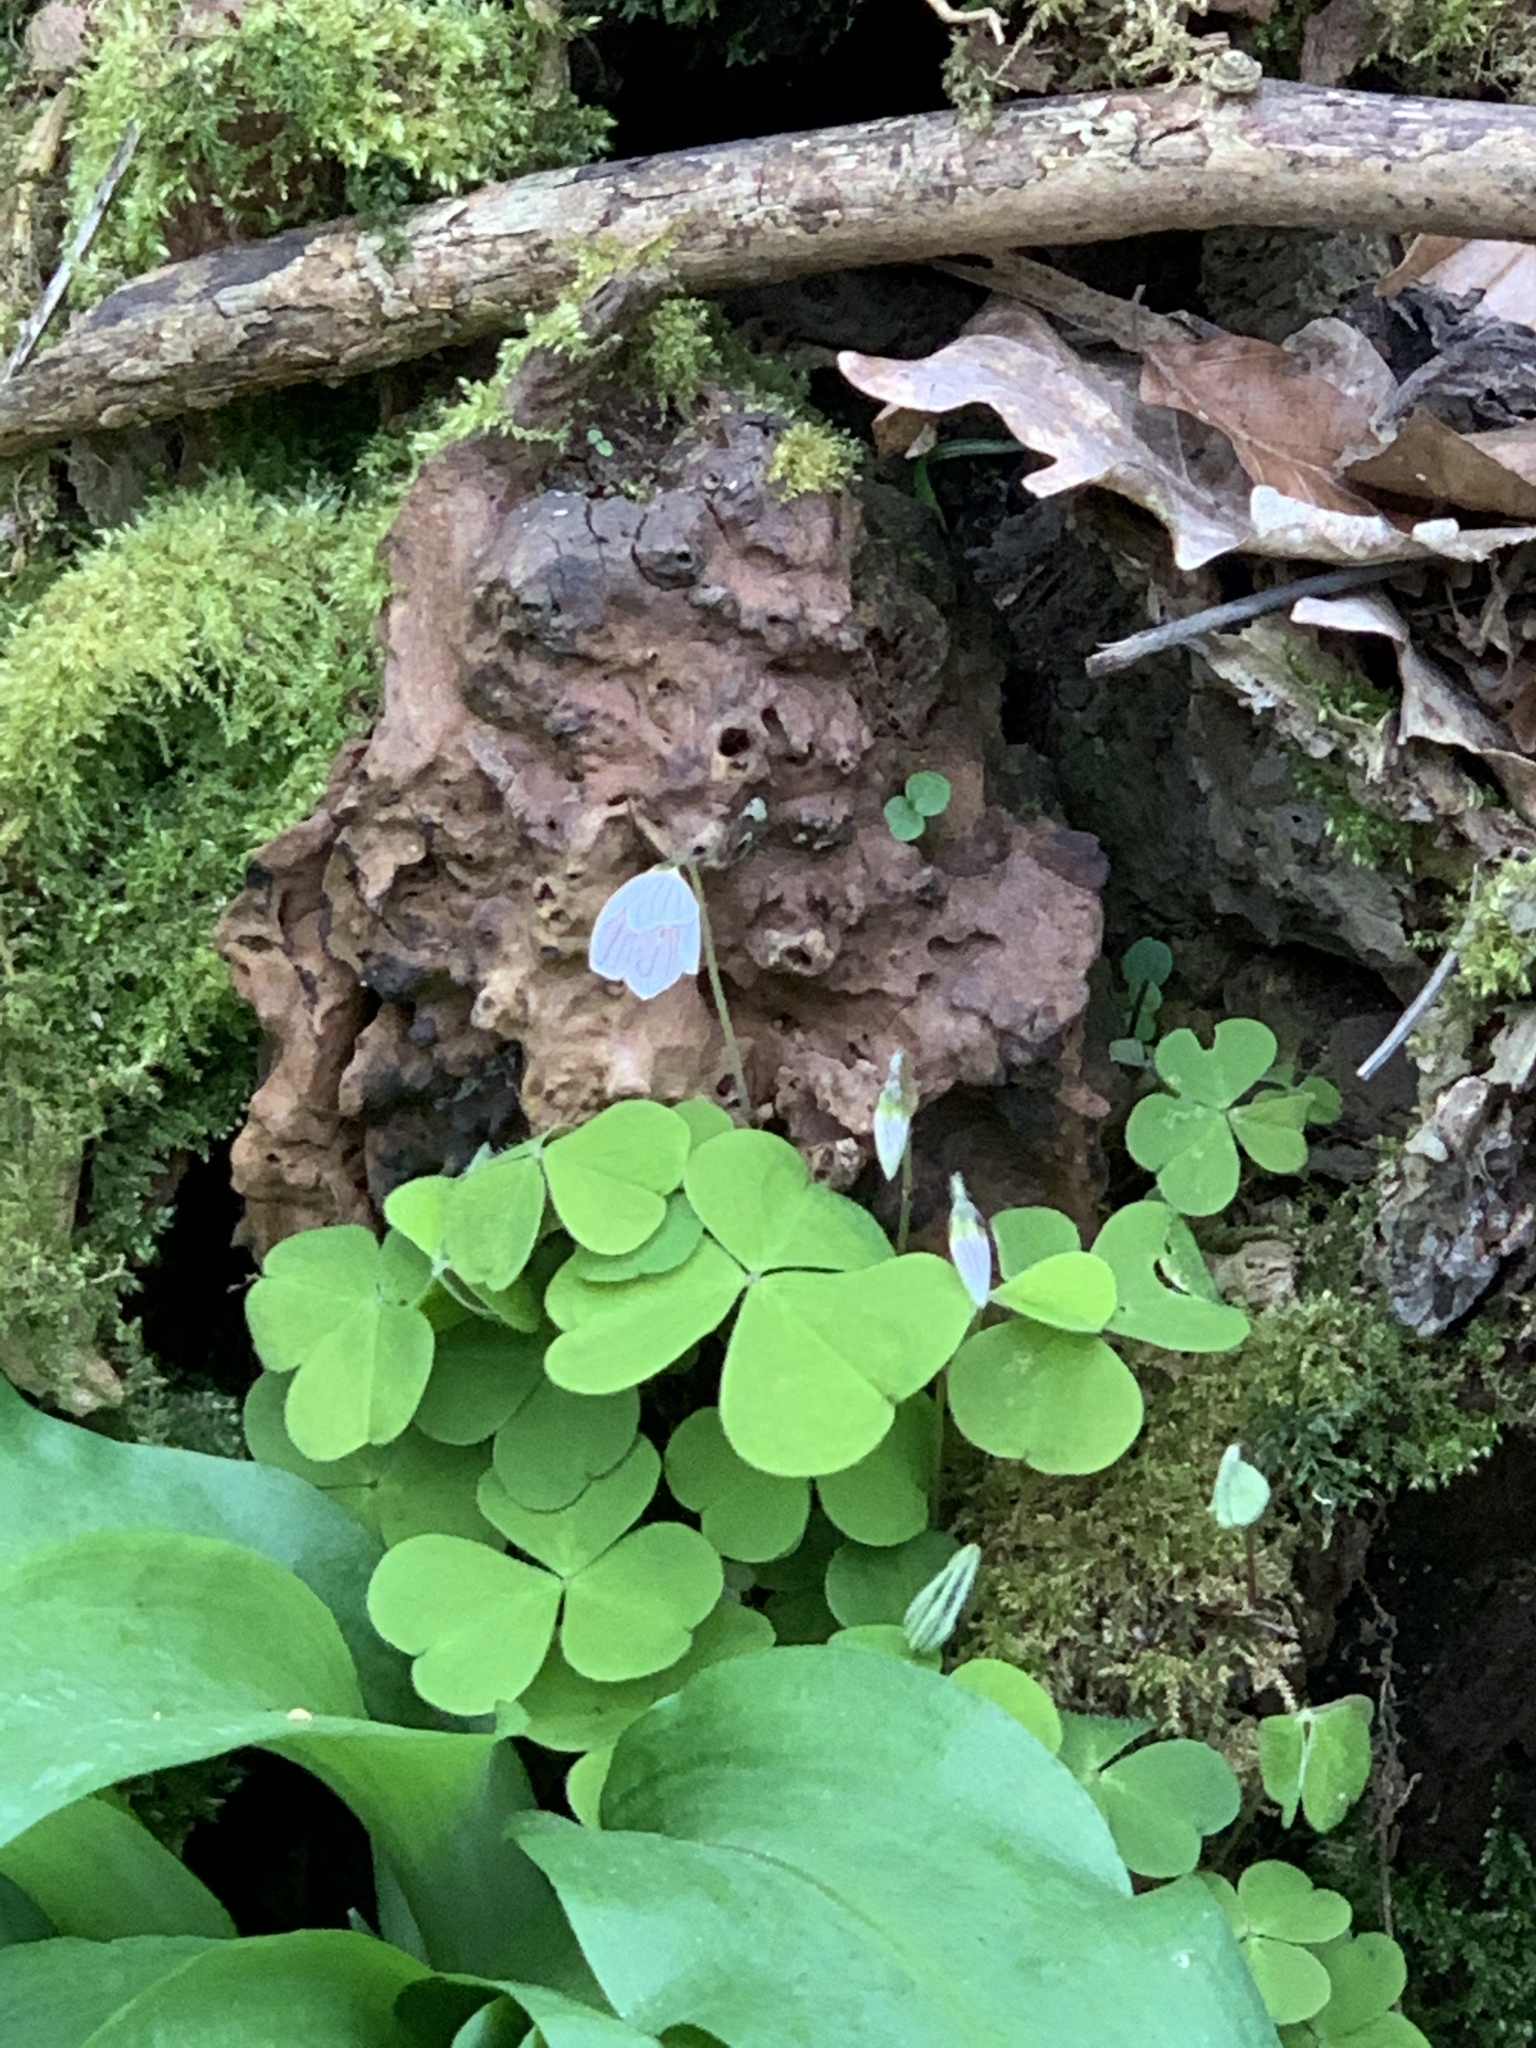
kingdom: Plantae
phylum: Tracheophyta
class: Magnoliopsida
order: Oxalidales
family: Oxalidaceae
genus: Oxalis
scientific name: Oxalis acetosella
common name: Wood-sorrel
